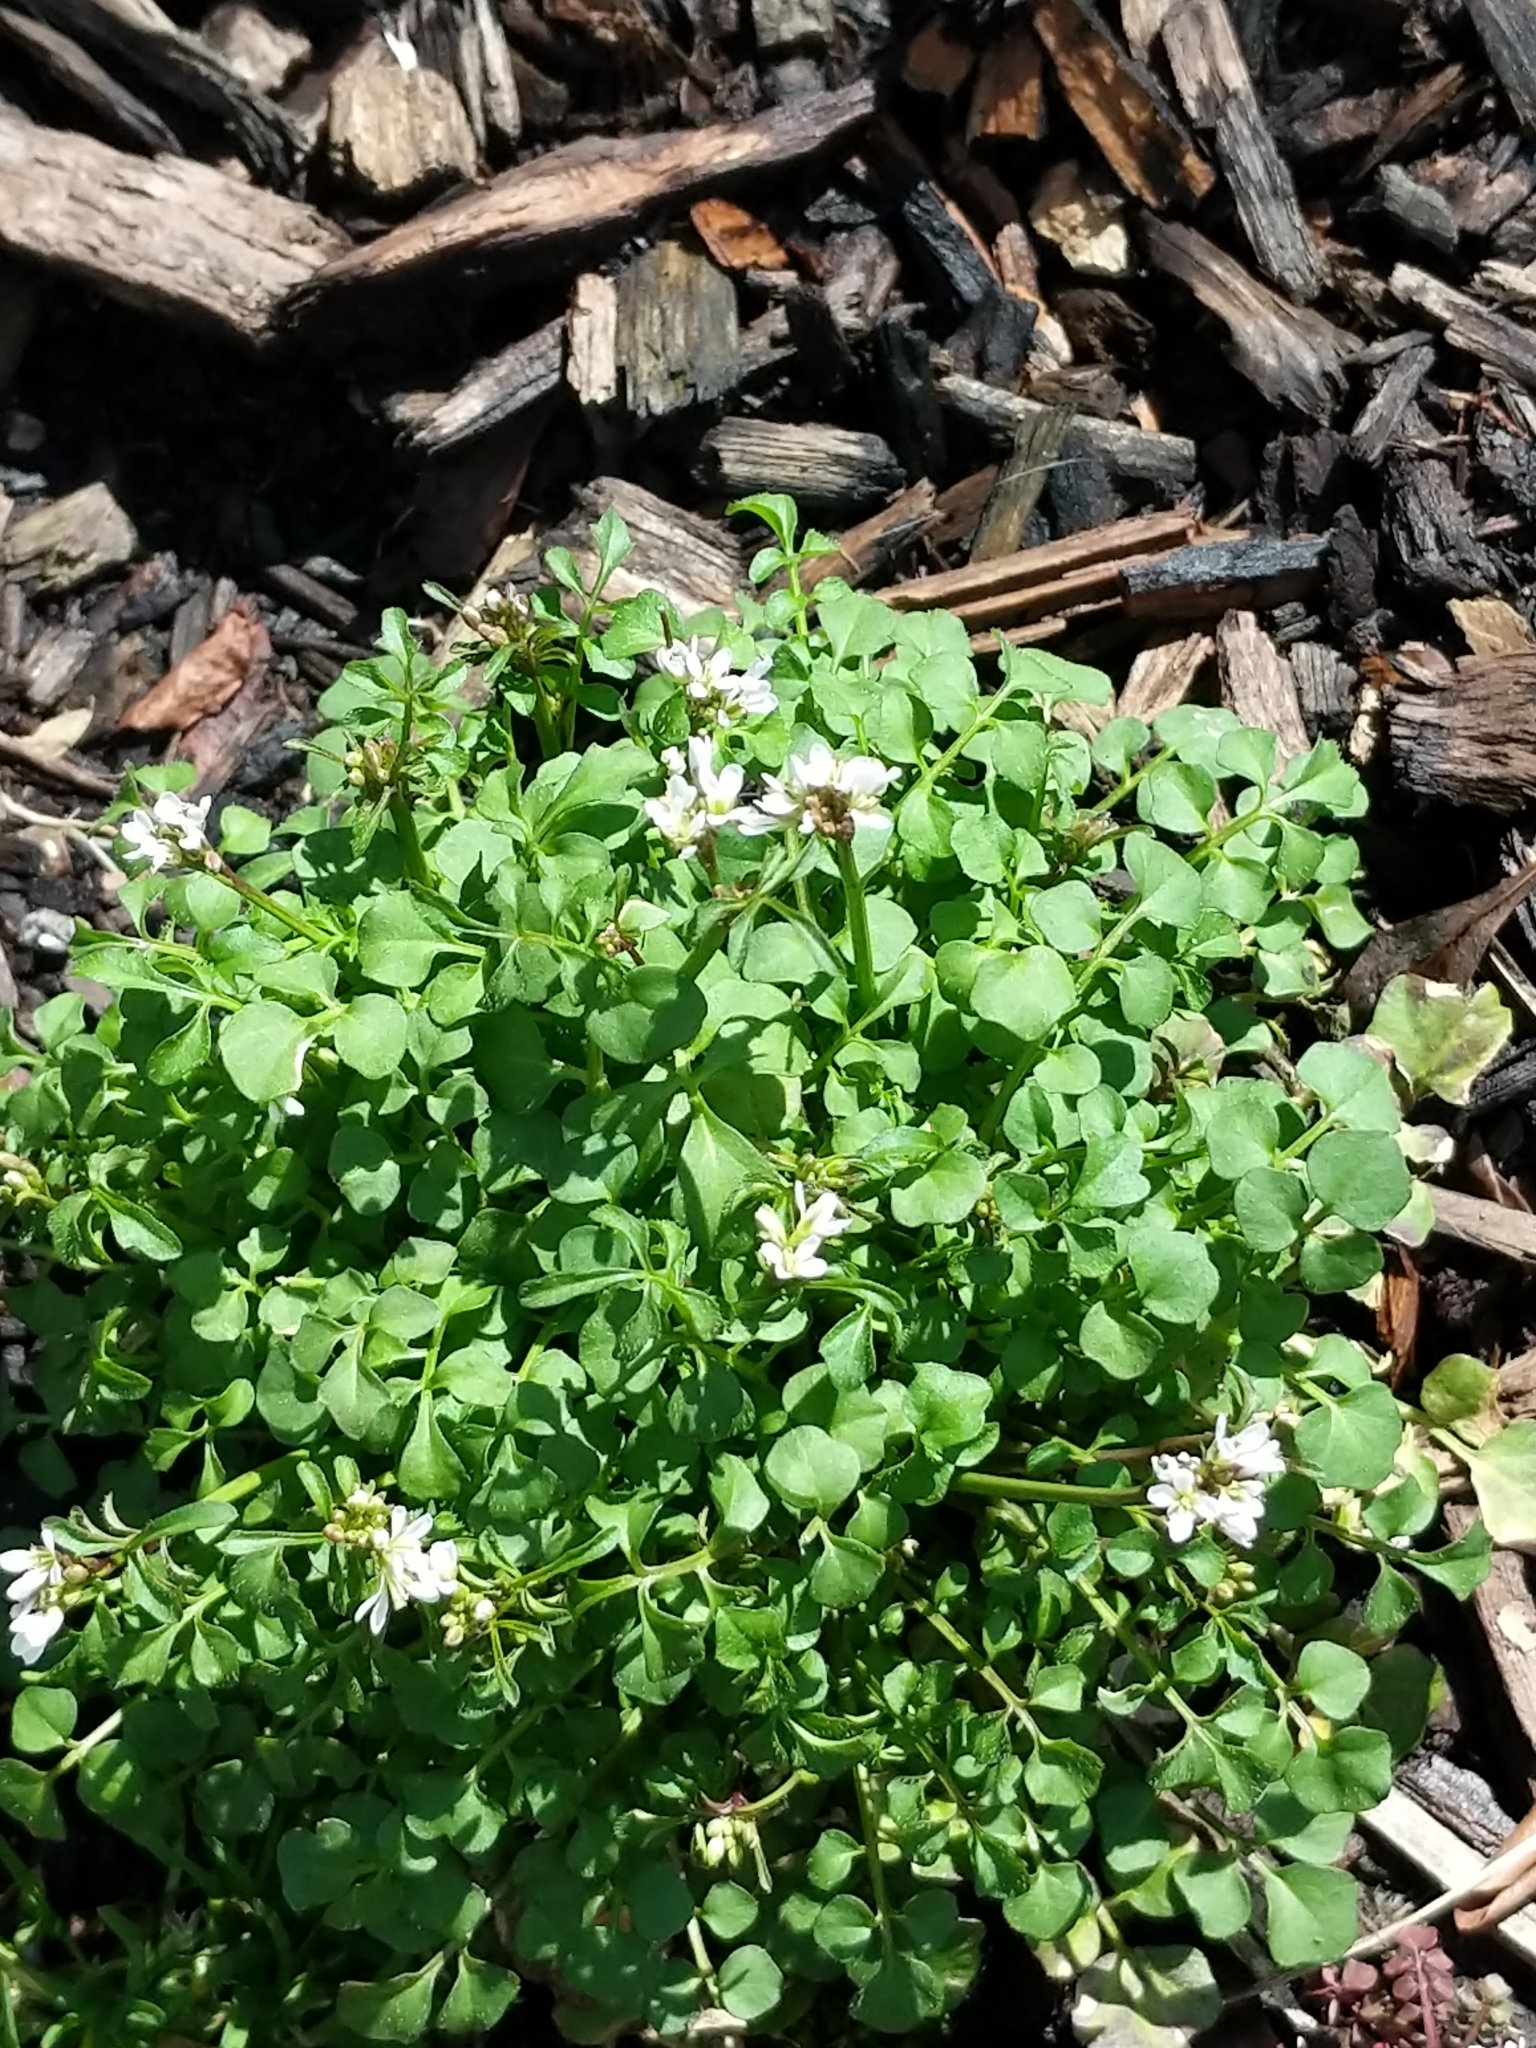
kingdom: Plantae
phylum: Tracheophyta
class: Magnoliopsida
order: Brassicales
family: Brassicaceae
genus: Cardamine
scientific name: Cardamine hirsuta
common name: Hairy bittercress
